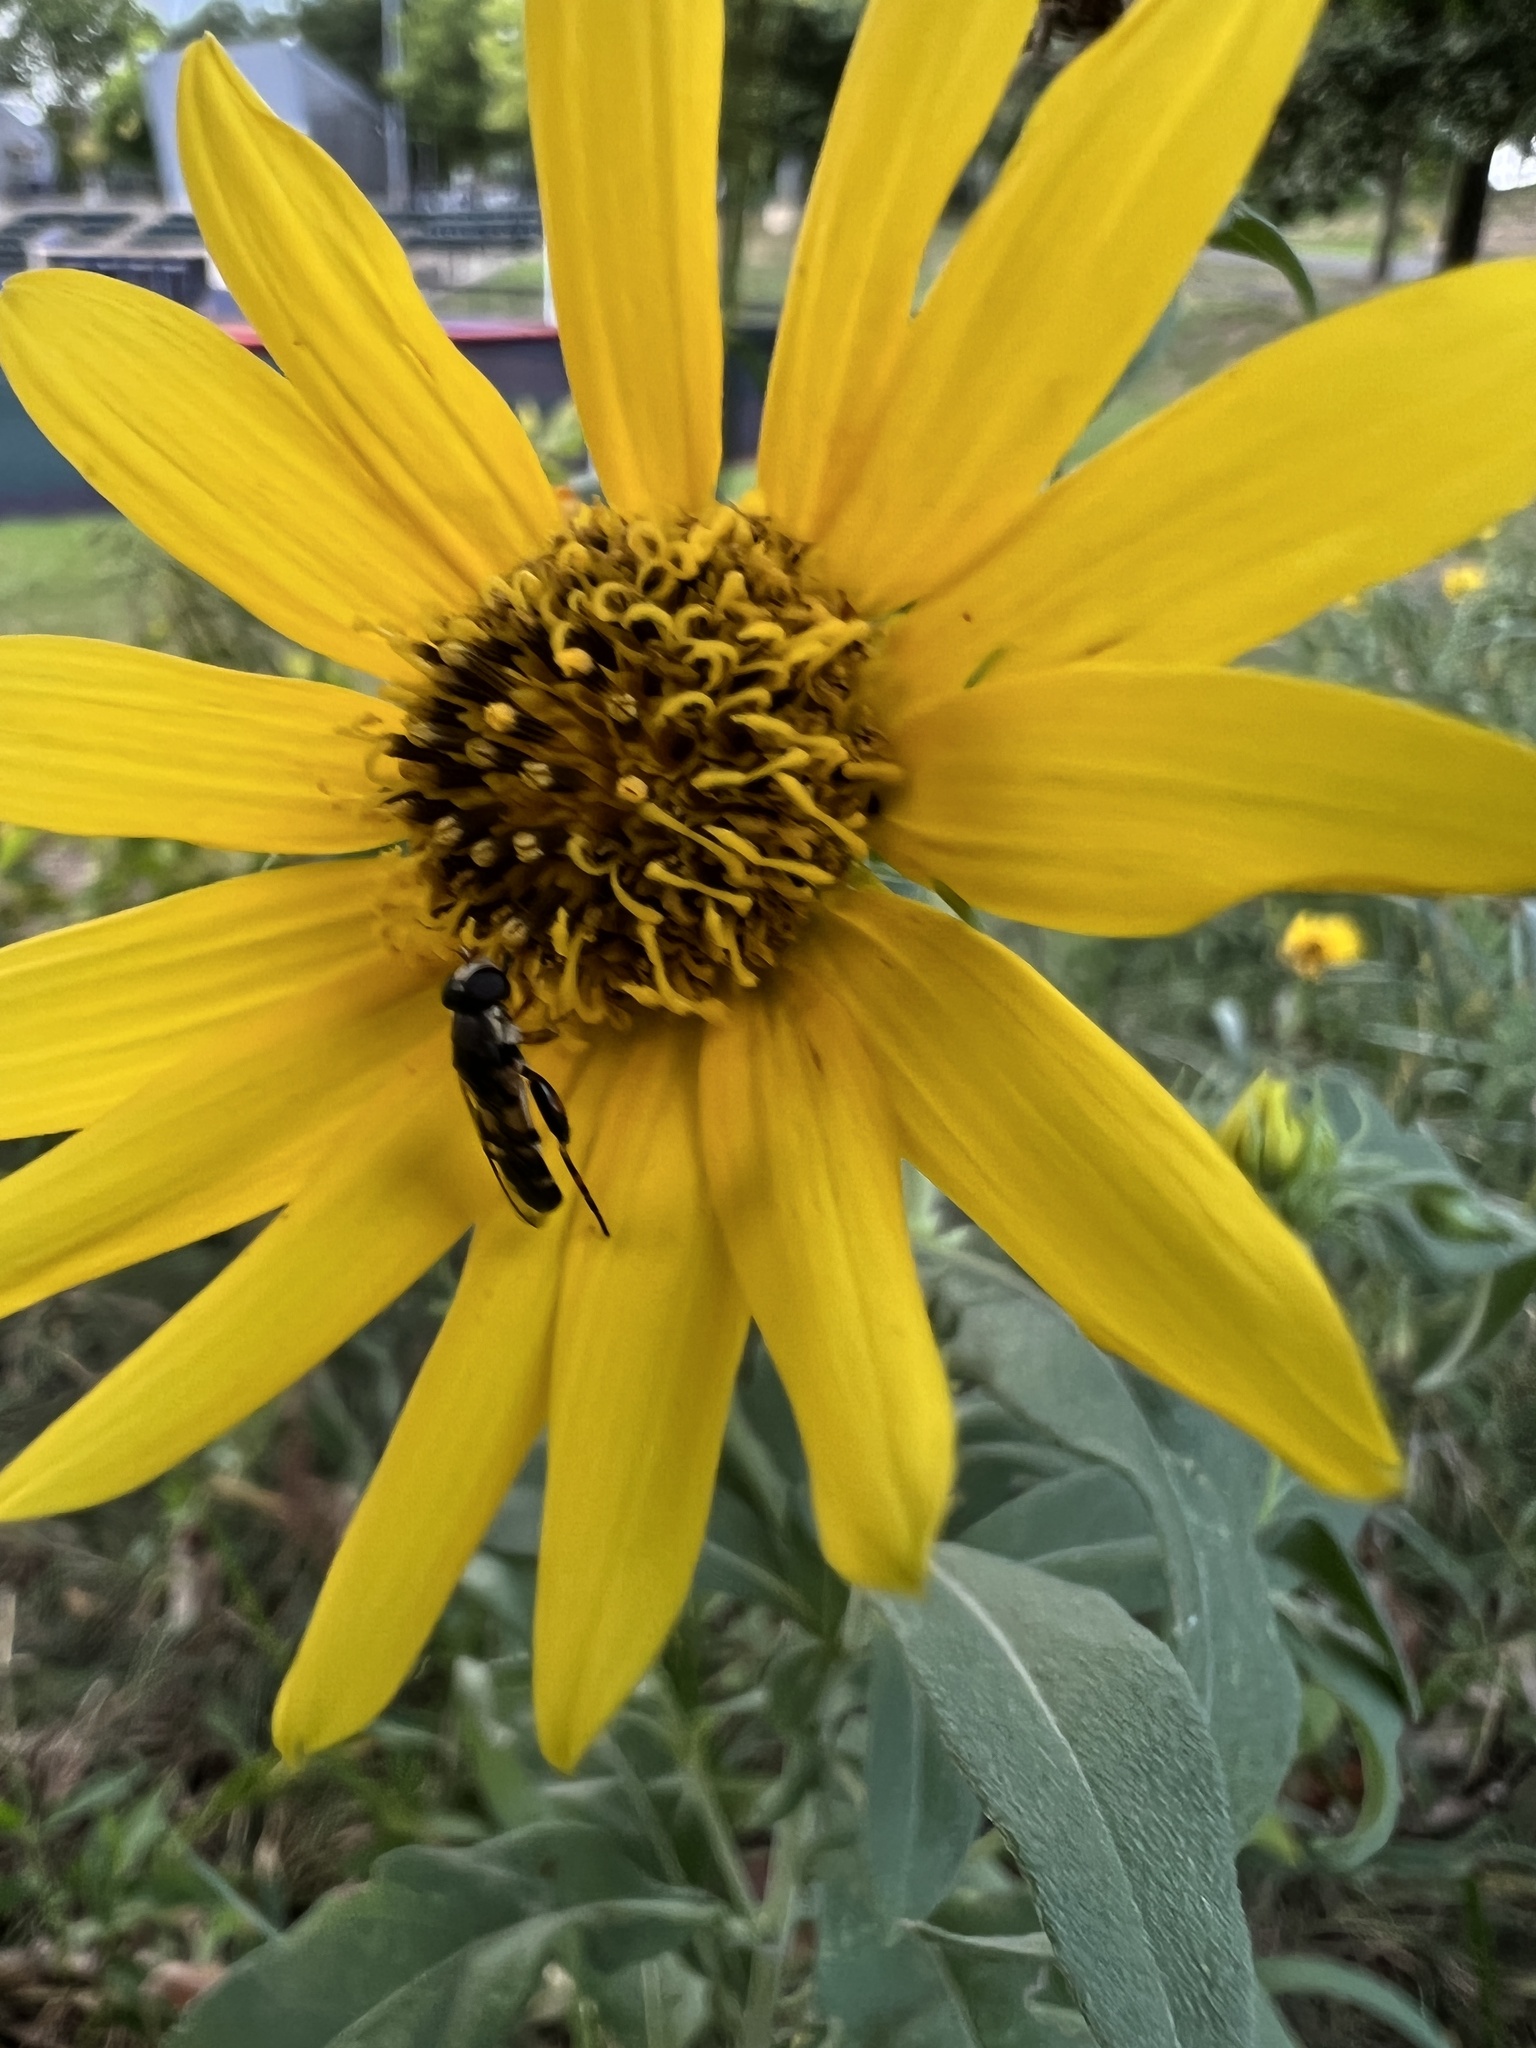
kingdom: Animalia
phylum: Arthropoda
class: Insecta
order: Diptera
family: Syrphidae
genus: Syritta
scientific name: Syritta pipiens
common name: Hover fly
